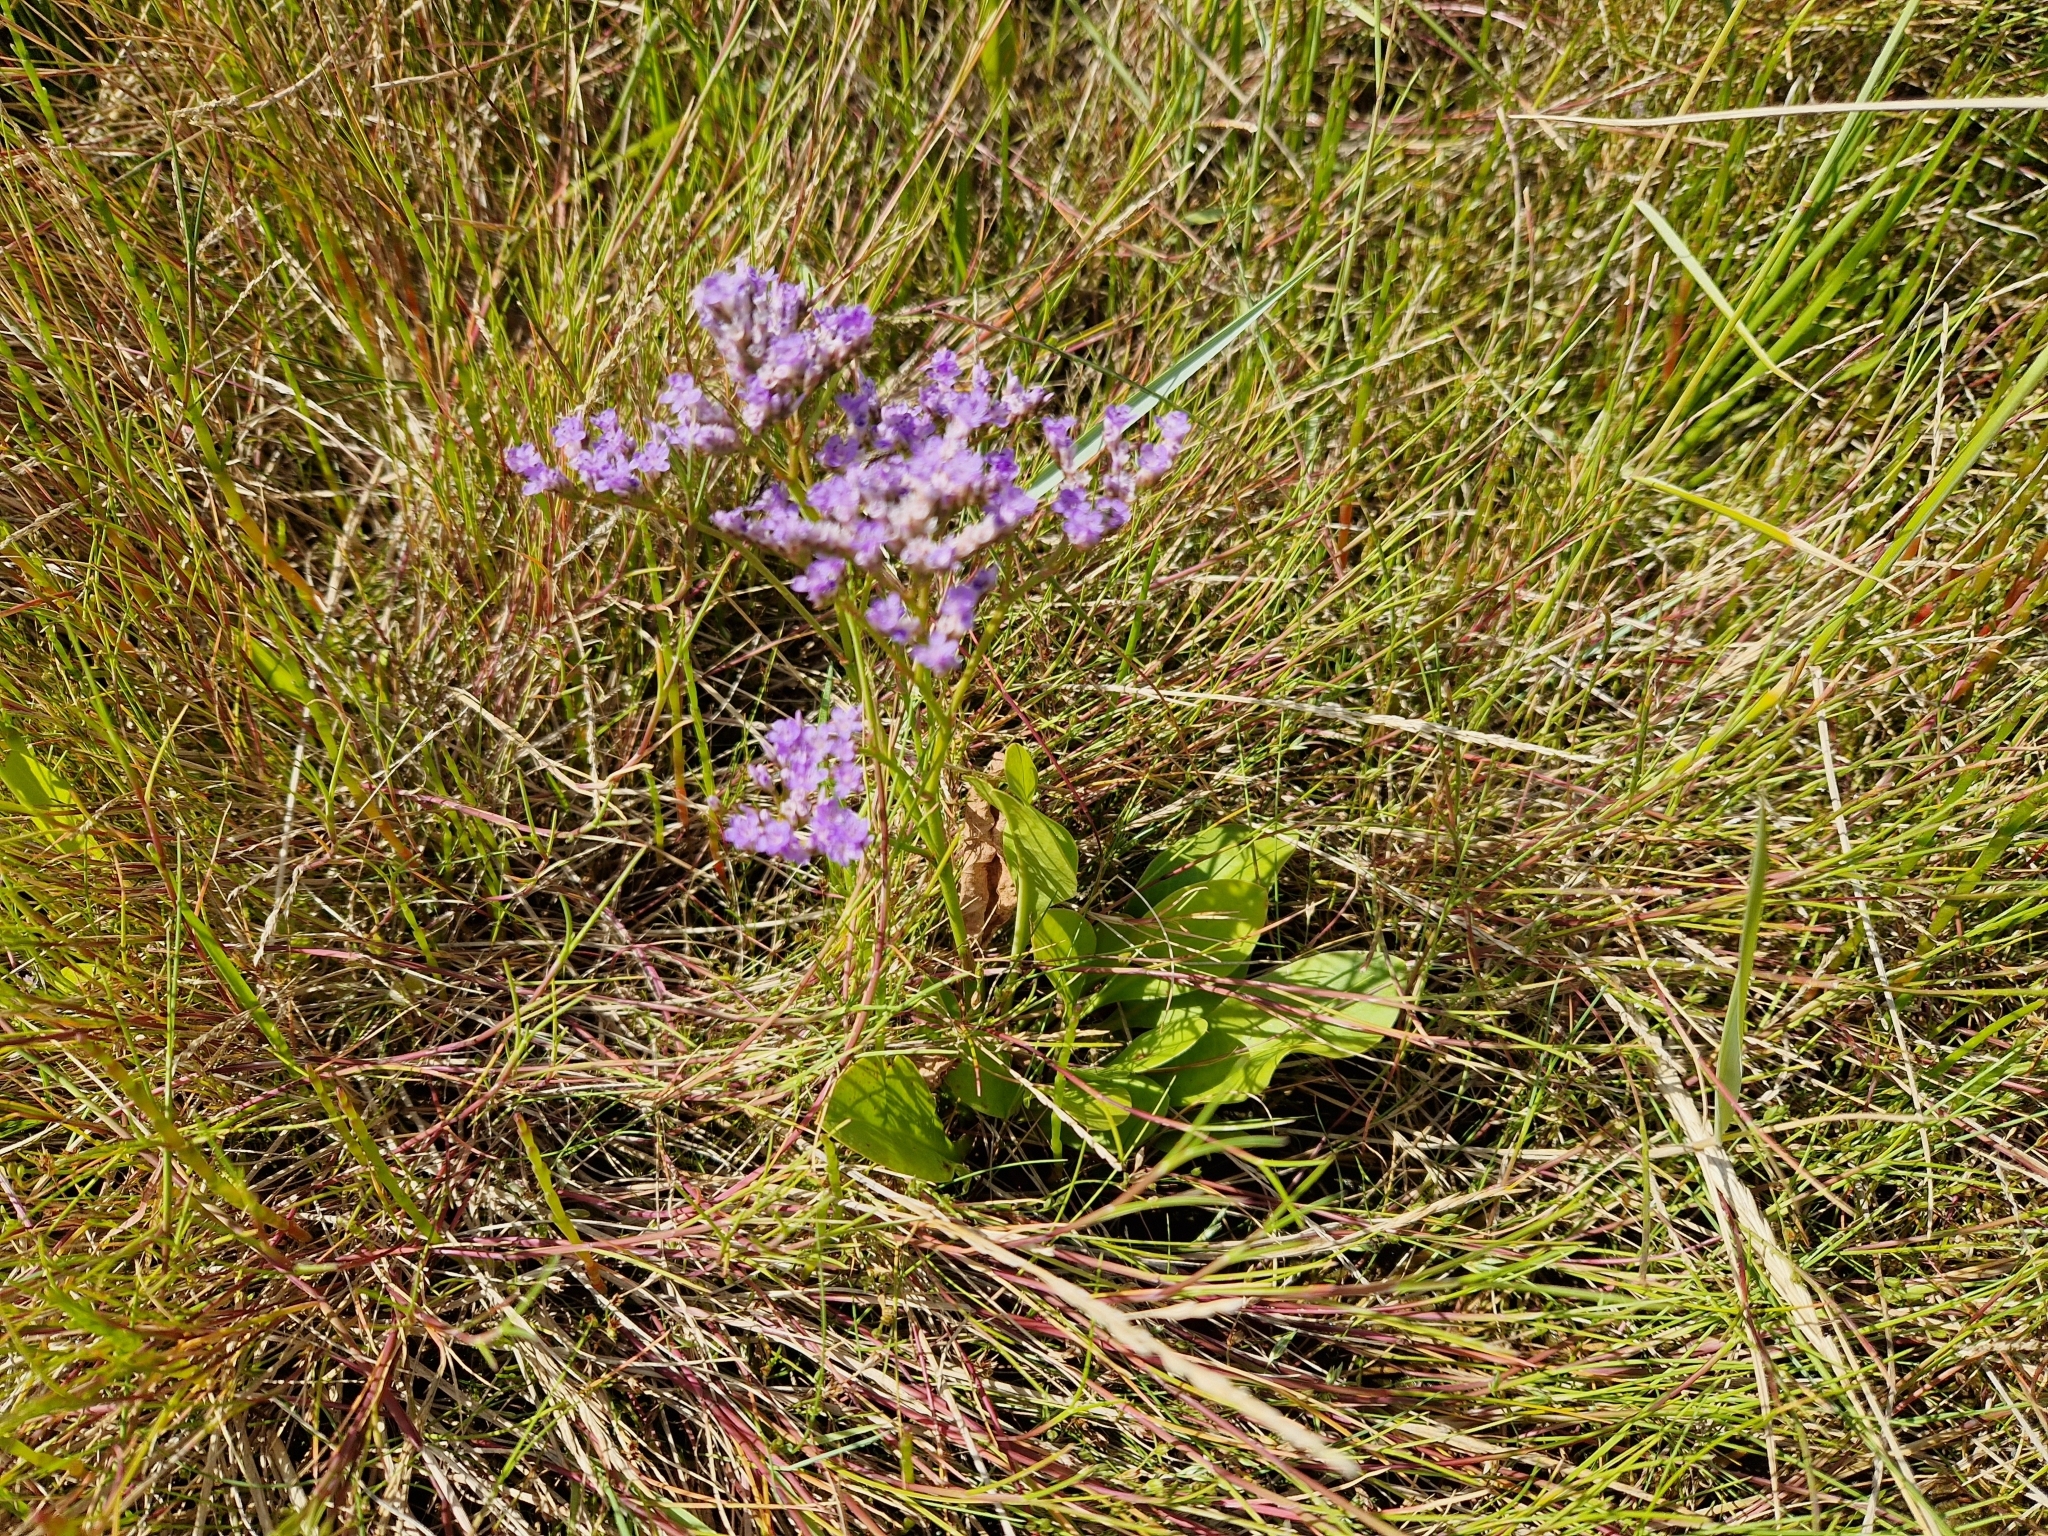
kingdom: Plantae
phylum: Tracheophyta
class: Magnoliopsida
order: Caryophyllales
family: Plumbaginaceae
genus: Limonium
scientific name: Limonium vulgare
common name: Common sea-lavender
